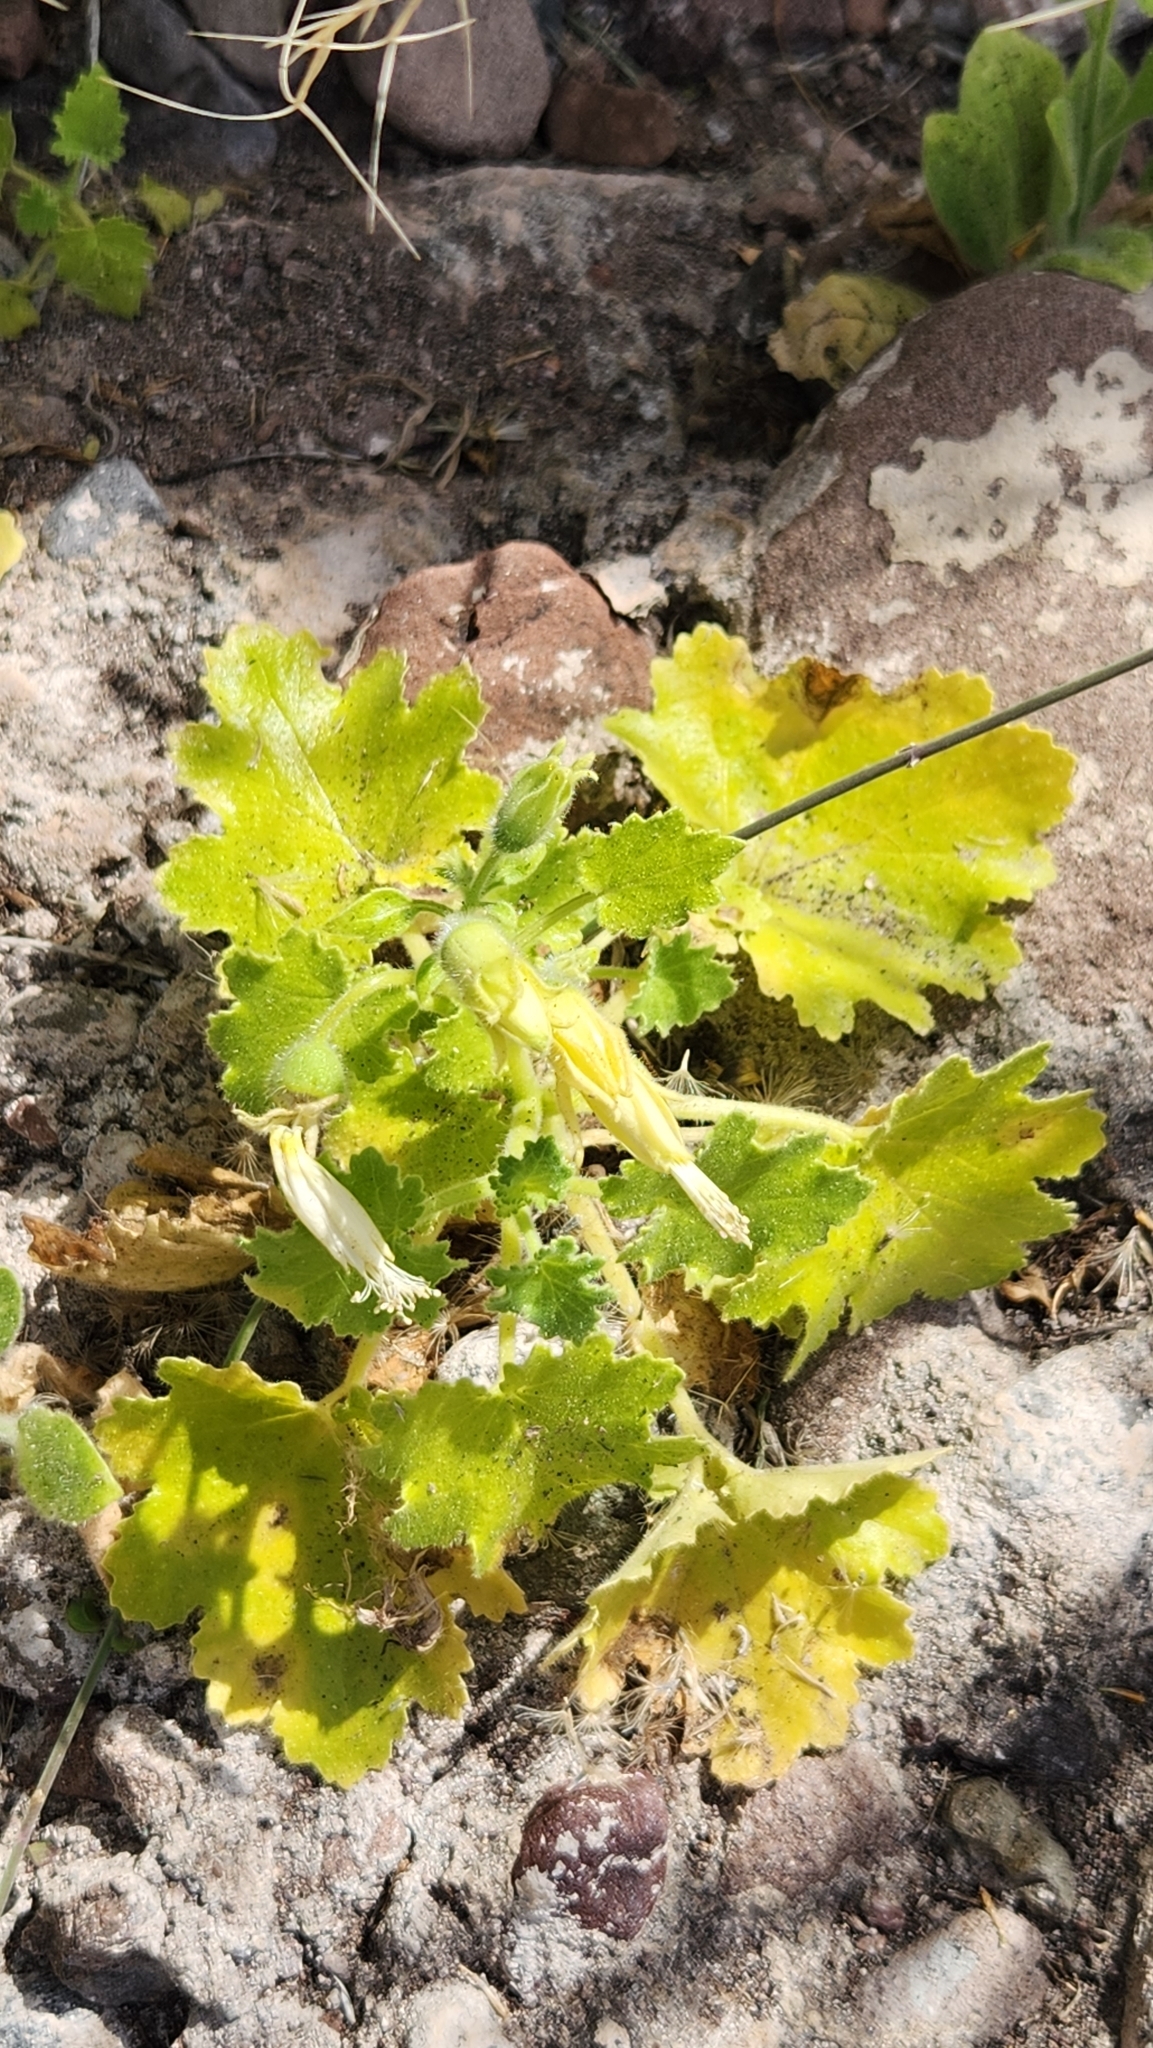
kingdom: Plantae
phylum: Tracheophyta
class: Magnoliopsida
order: Cornales
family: Loasaceae
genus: Eucnide
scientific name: Eucnide cordata
